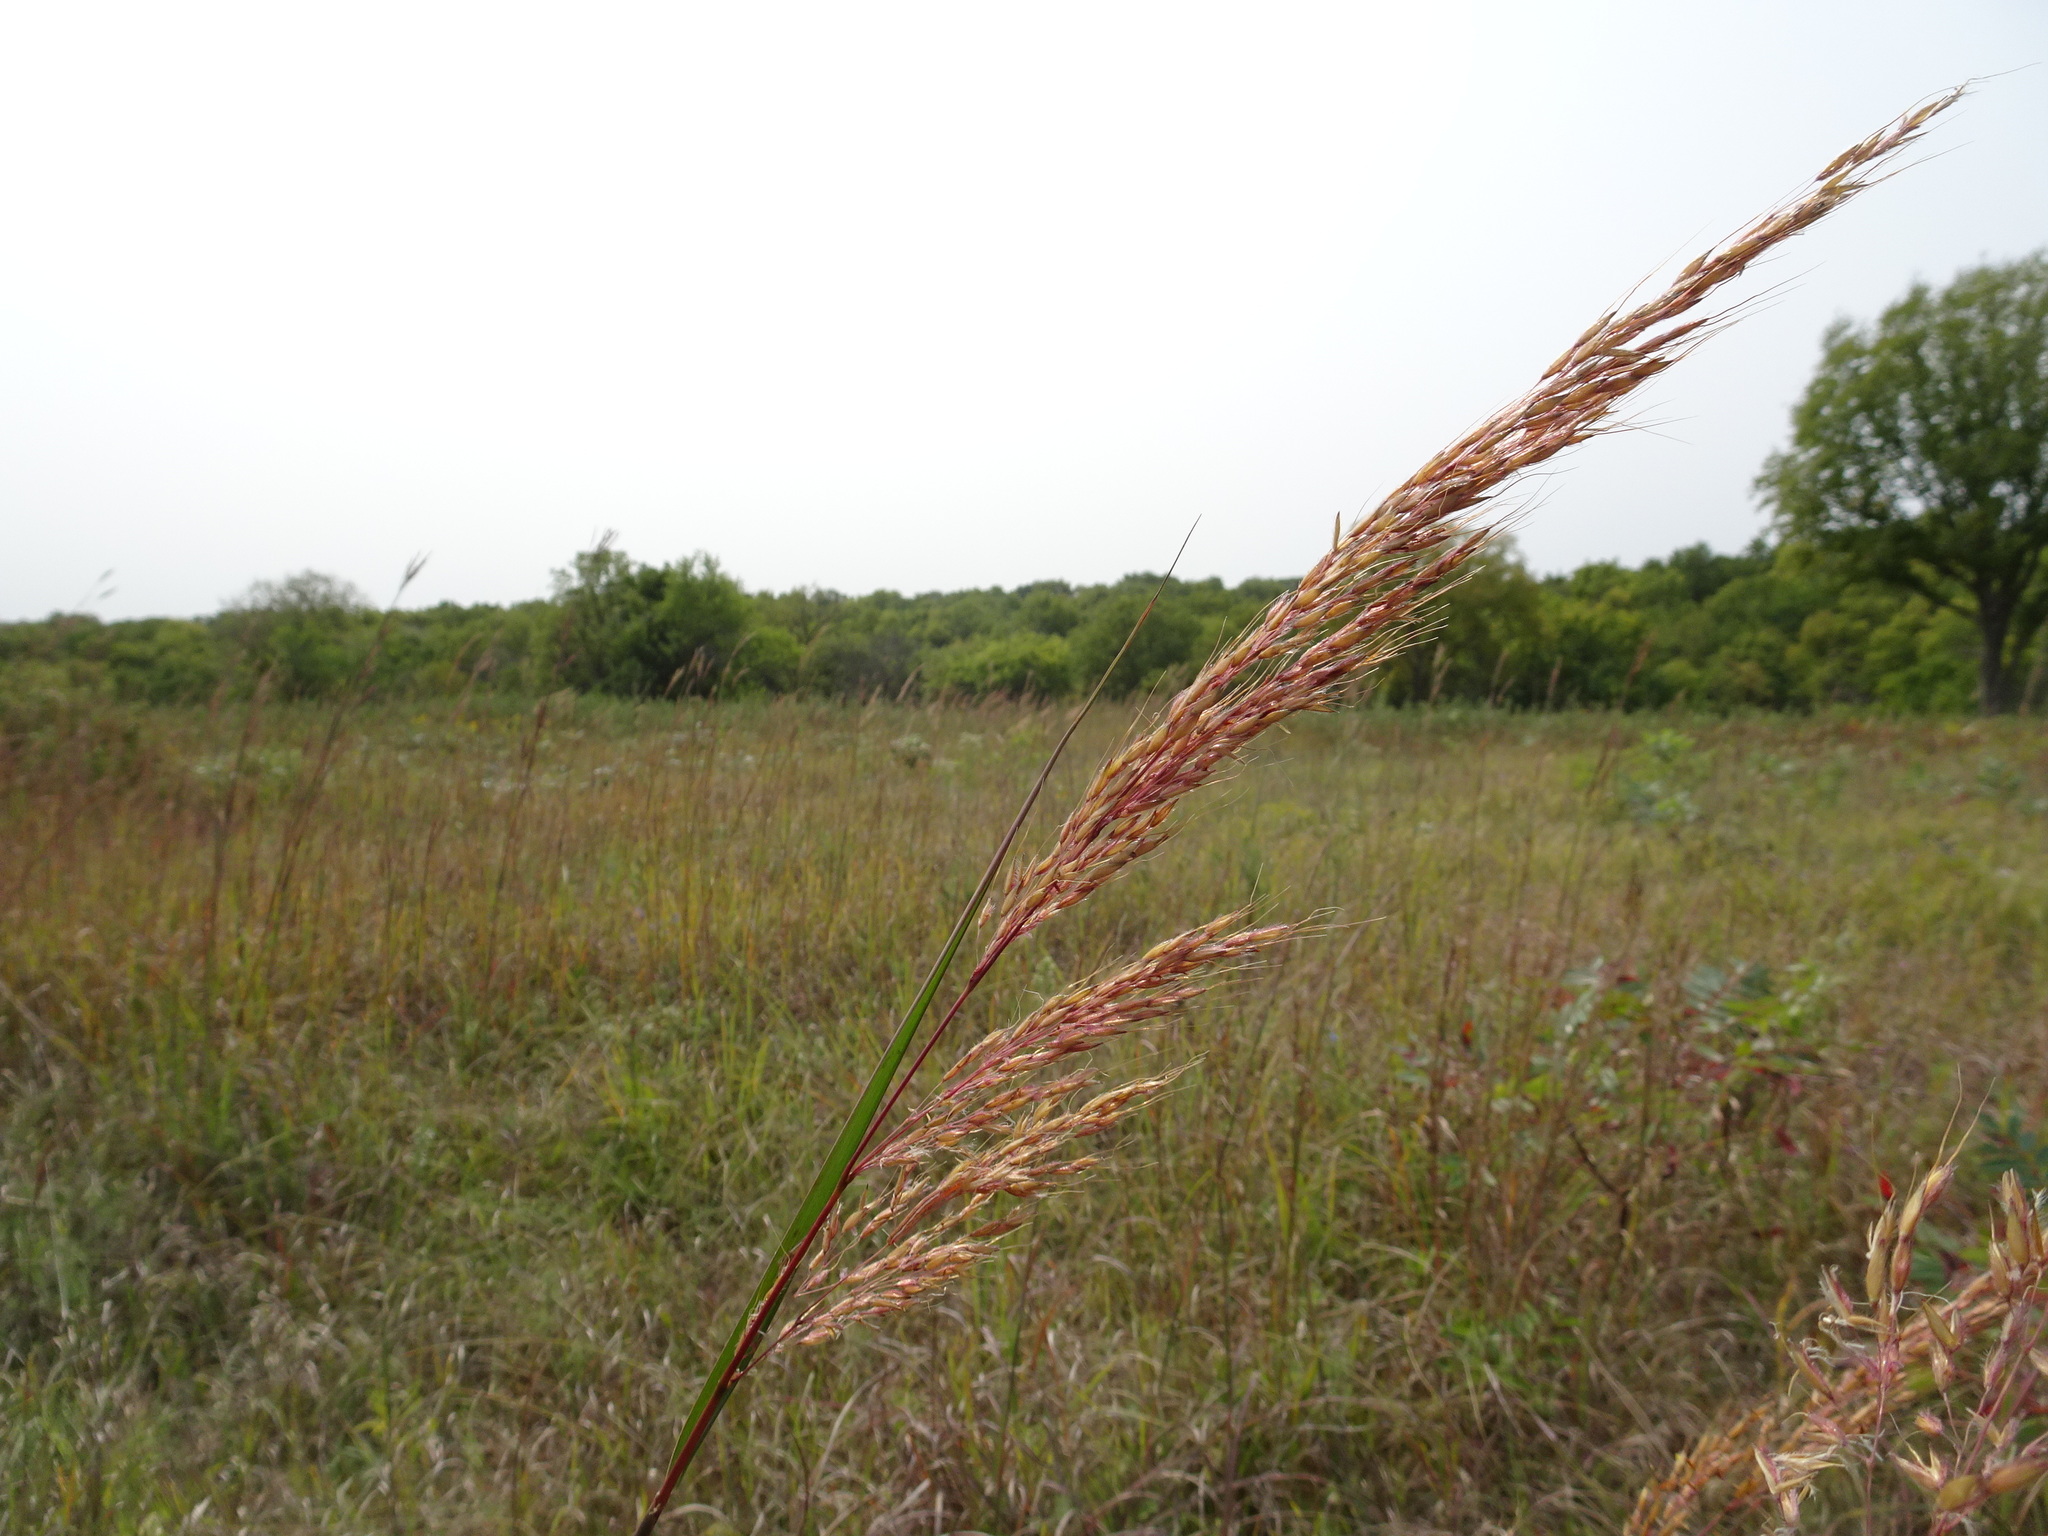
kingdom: Plantae
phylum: Tracheophyta
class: Liliopsida
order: Poales
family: Poaceae
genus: Sorghastrum
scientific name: Sorghastrum nutans
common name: Indian grass
